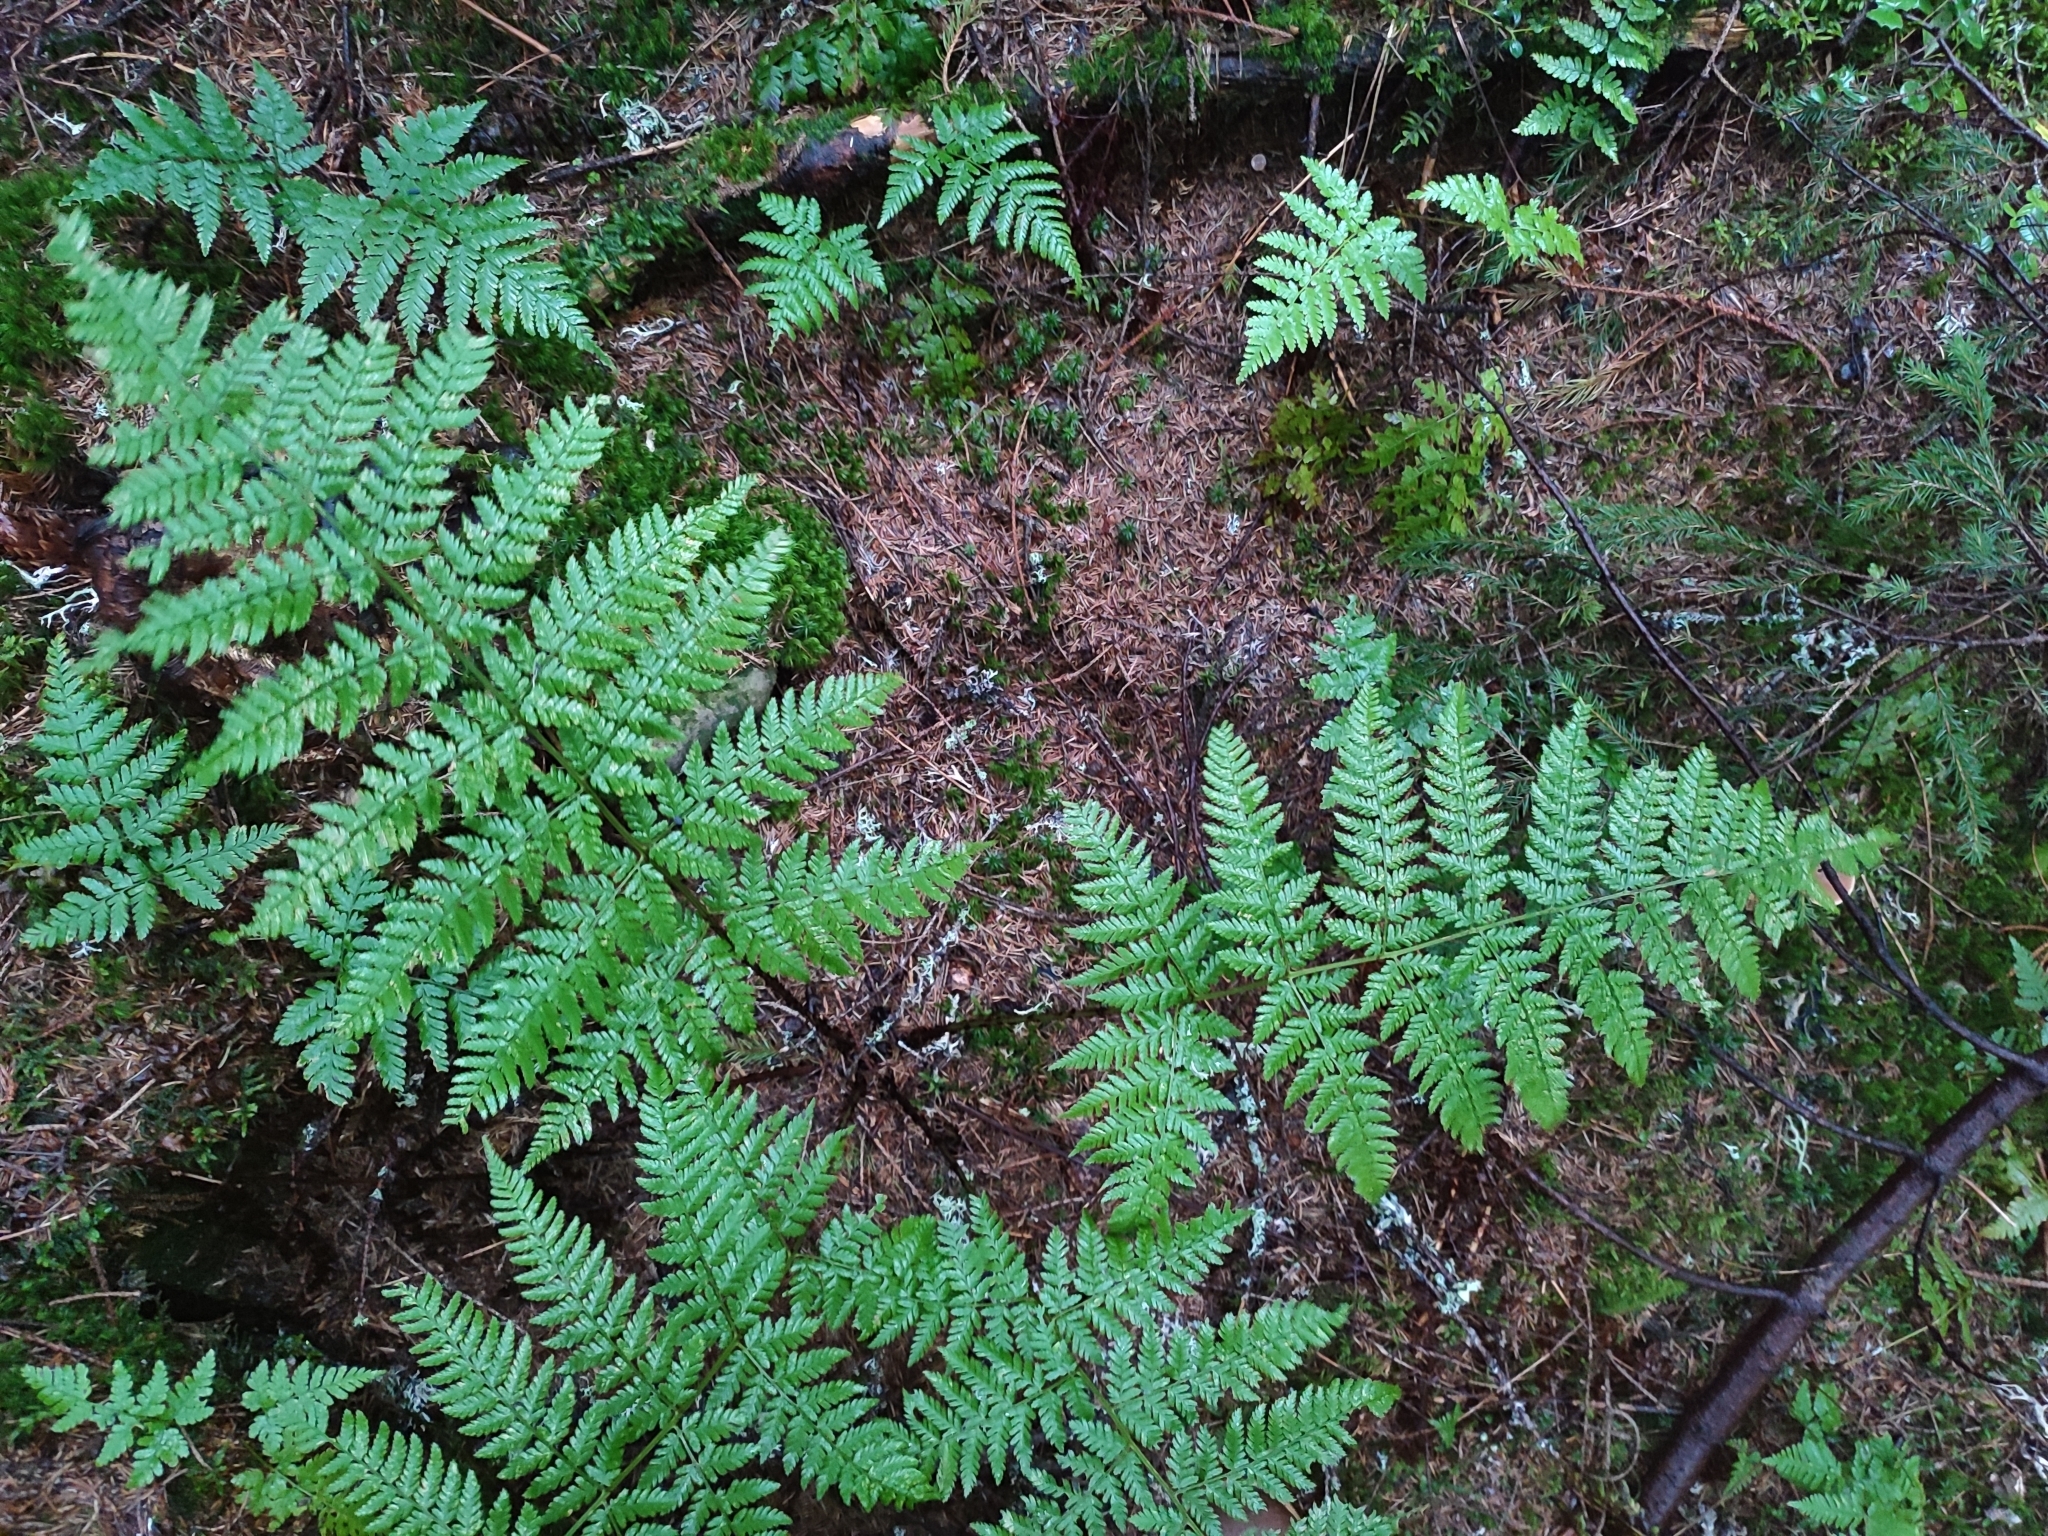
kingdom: Plantae
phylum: Tracheophyta
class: Polypodiopsida
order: Polypodiales
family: Dryopteridaceae
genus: Dryopteris
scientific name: Dryopteris expansa
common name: Northern buckler fern
